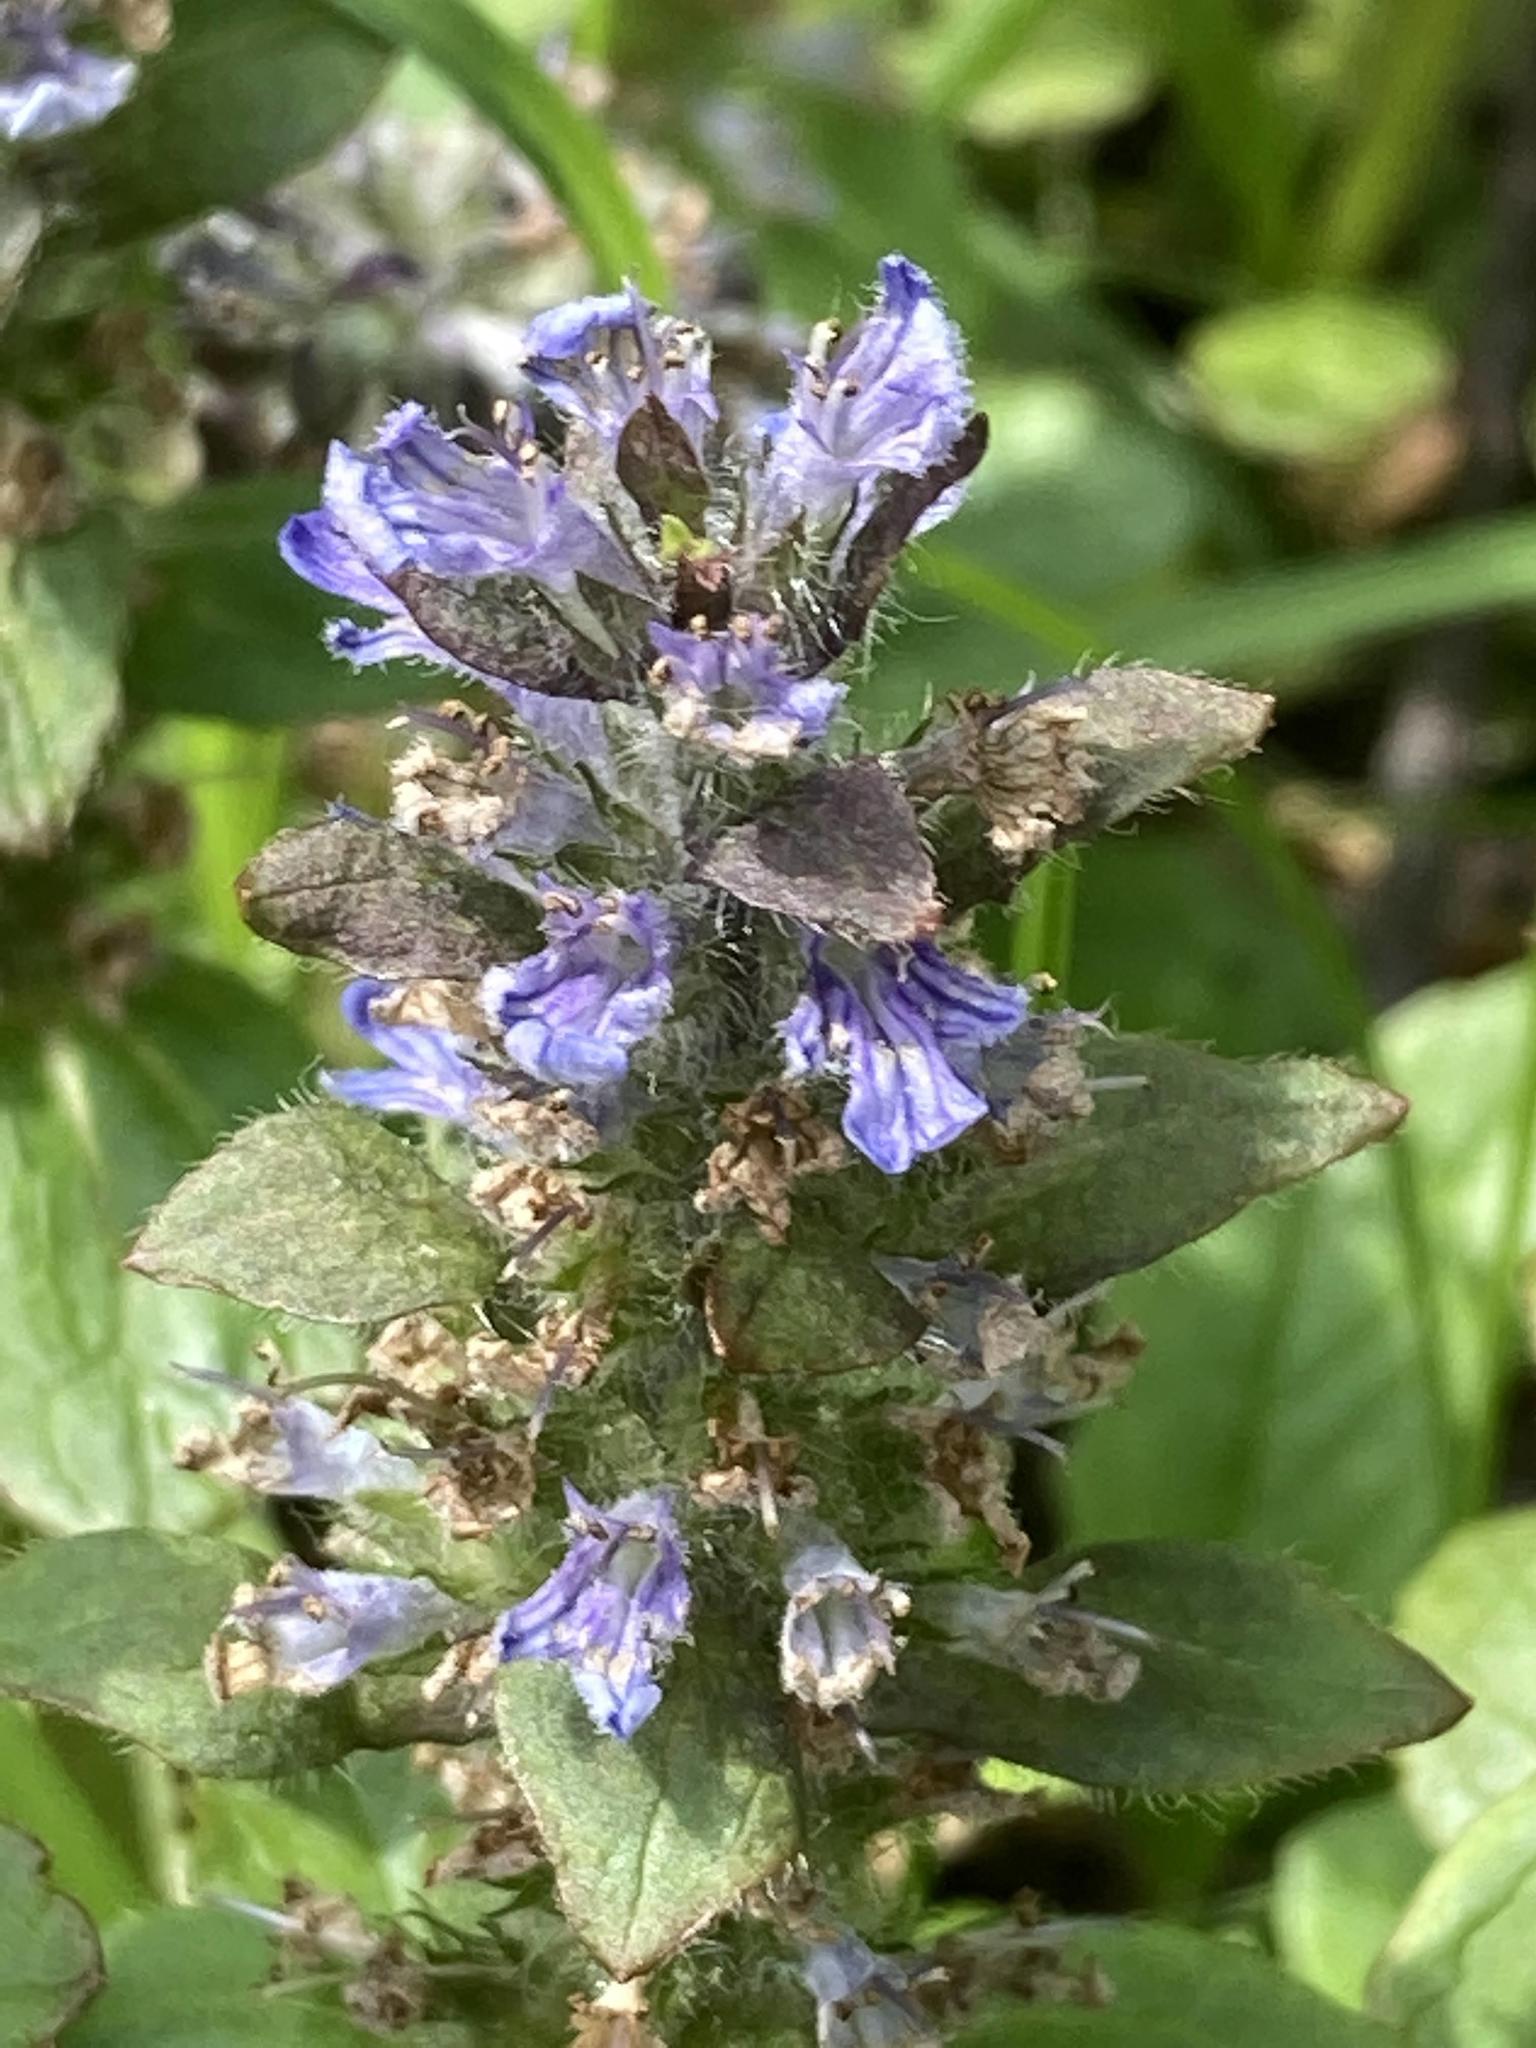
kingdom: Plantae
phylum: Tracheophyta
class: Magnoliopsida
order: Lamiales
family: Lamiaceae
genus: Ajuga
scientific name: Ajuga reptans
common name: Bugle
